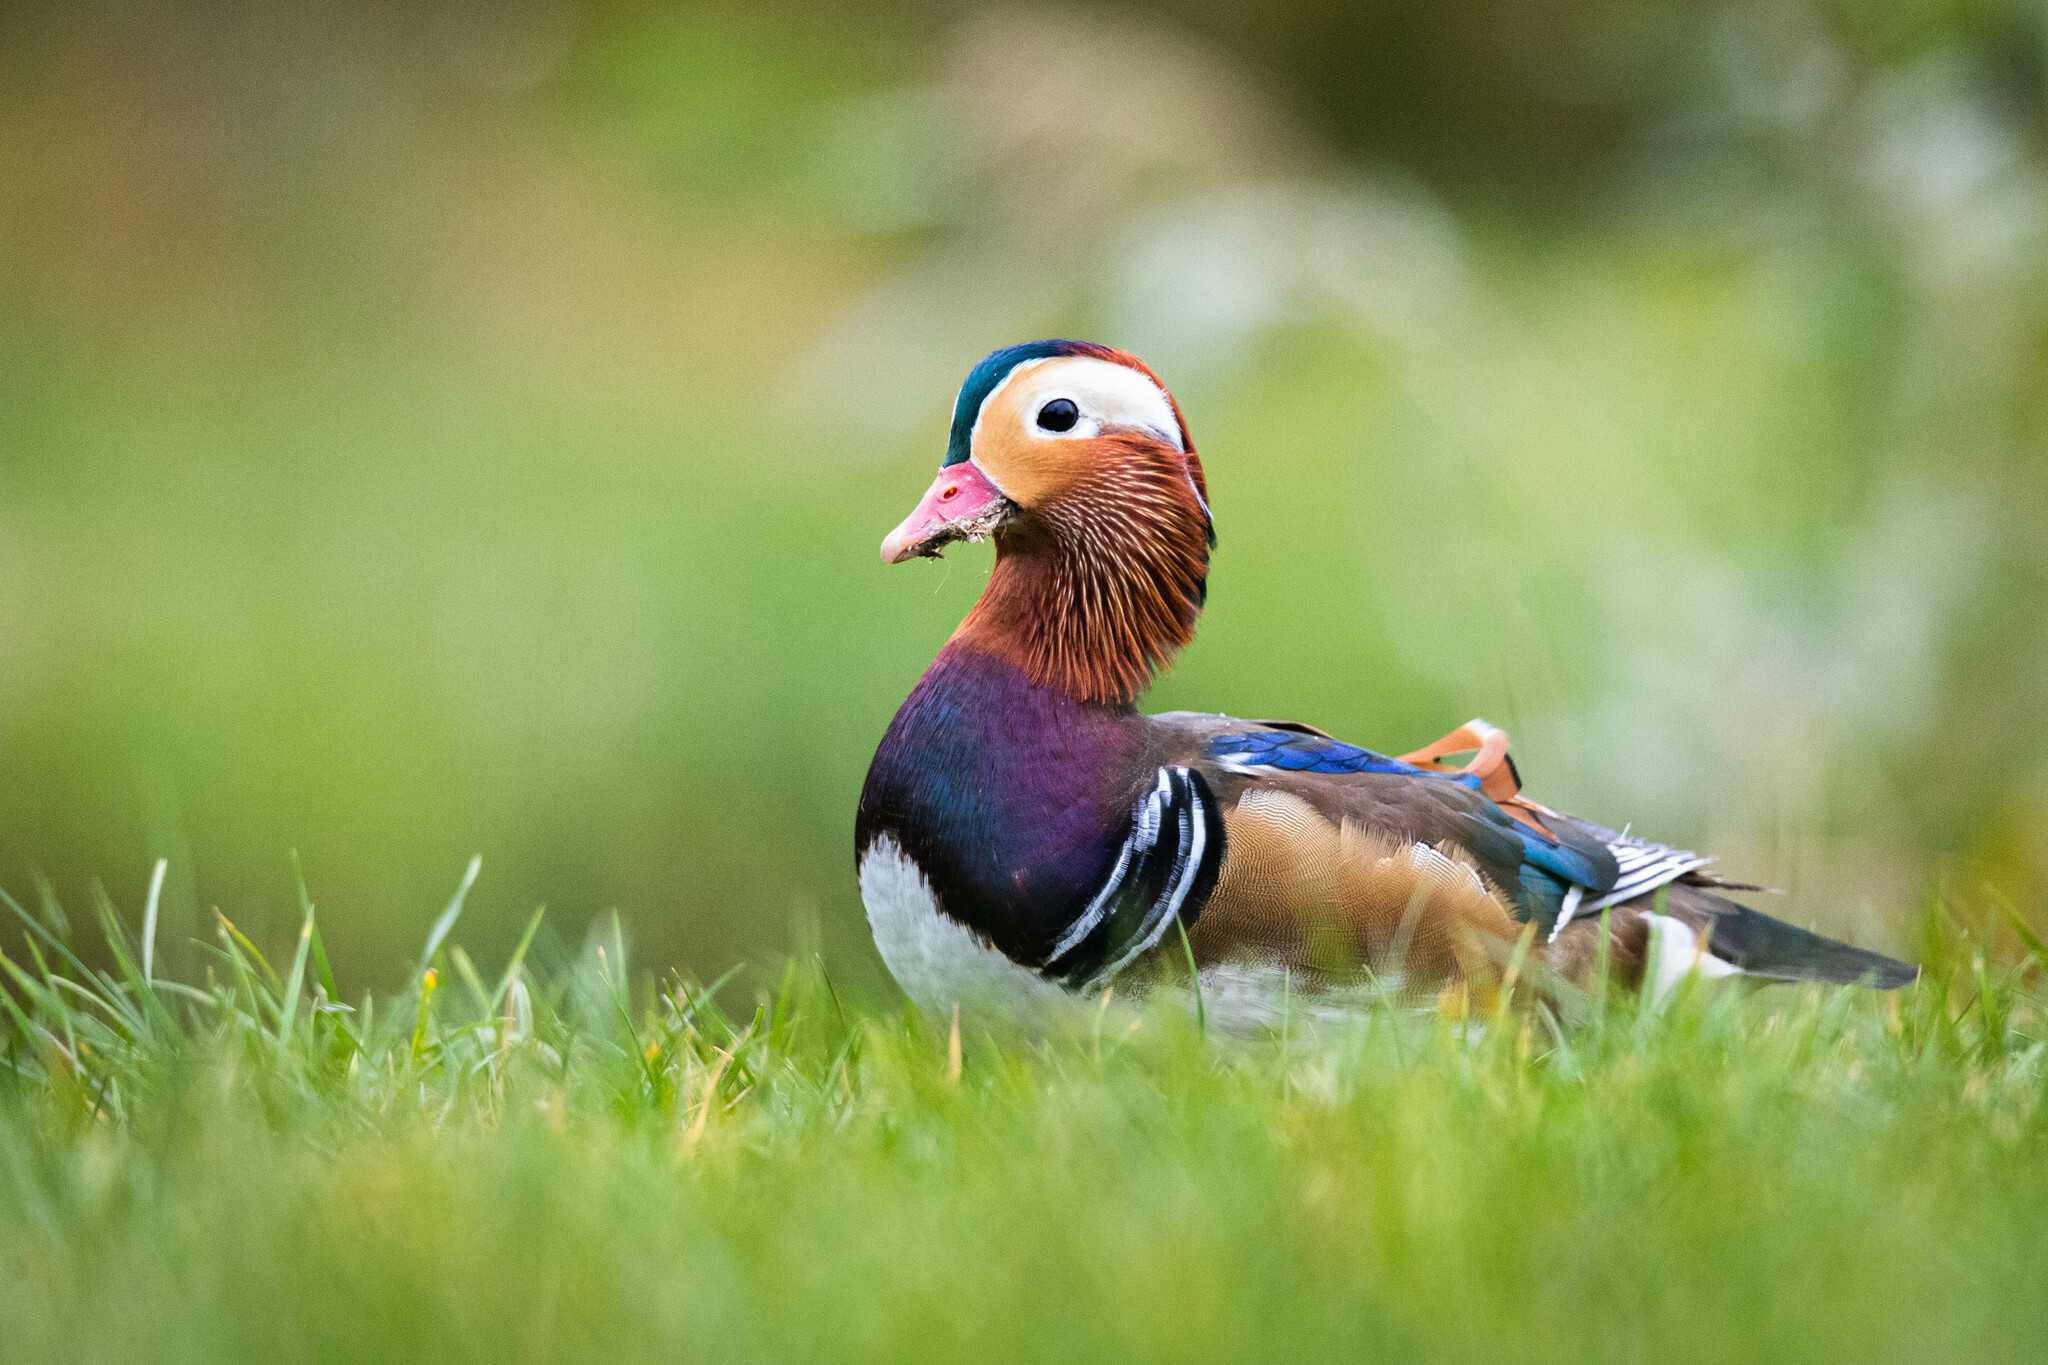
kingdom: Animalia
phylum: Chordata
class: Aves
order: Anseriformes
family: Anatidae
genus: Aix
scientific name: Aix galericulata
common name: Mandarin duck
